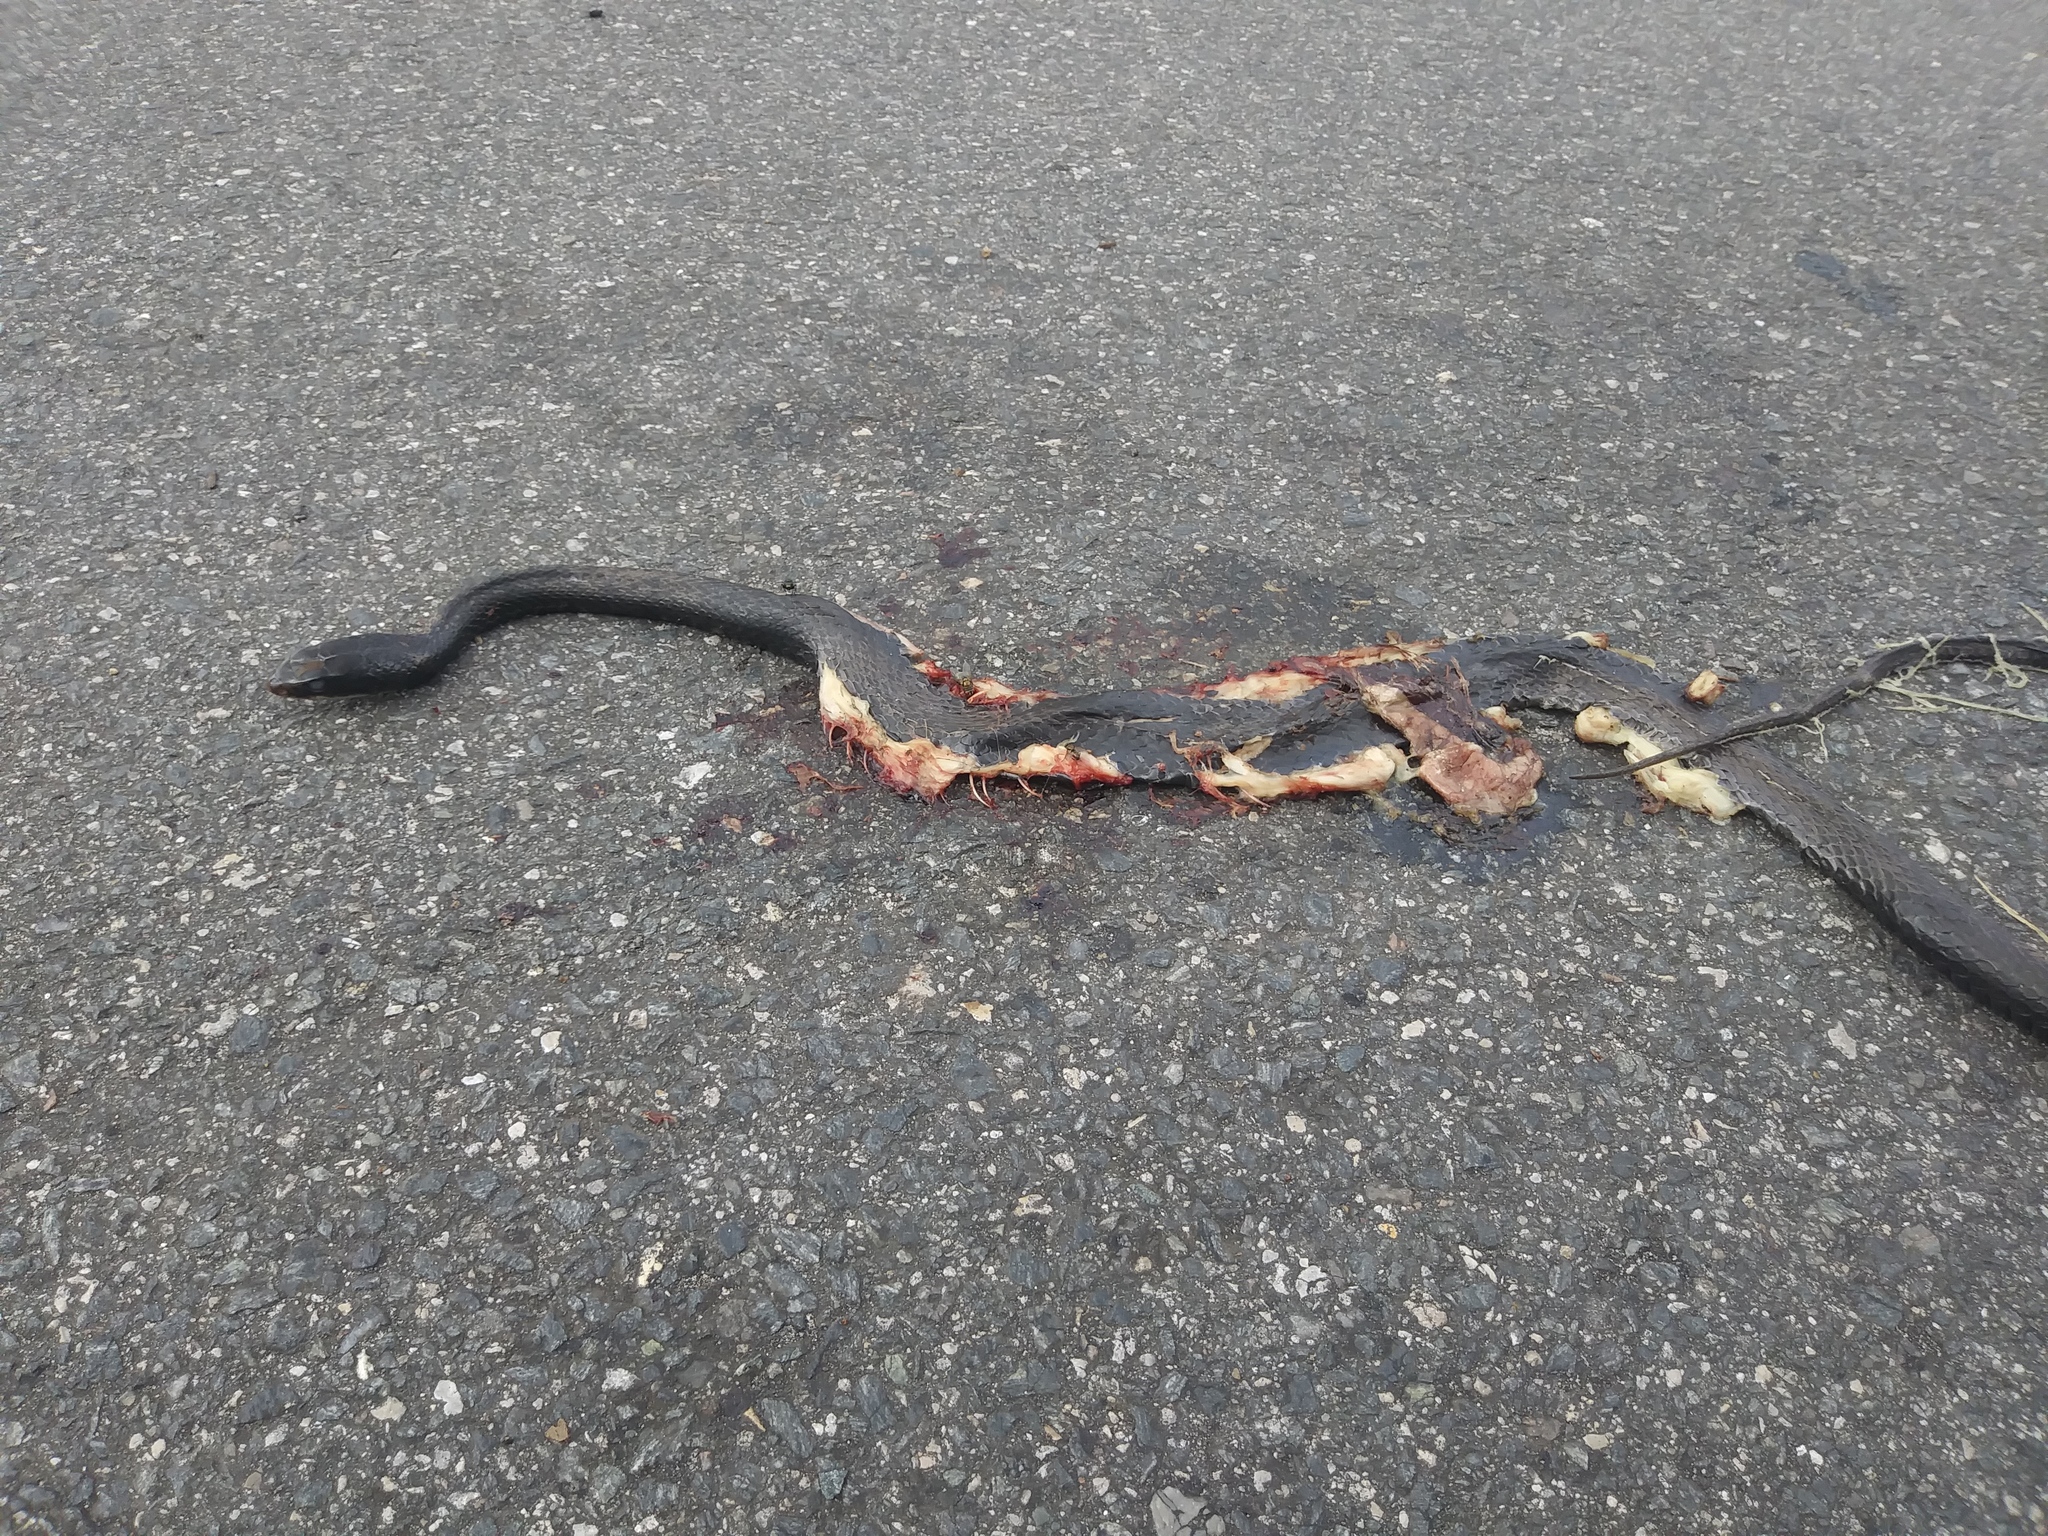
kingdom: Animalia
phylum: Chordata
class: Squamata
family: Colubridae
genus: Coluber
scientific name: Coluber constrictor
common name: Eastern racer
